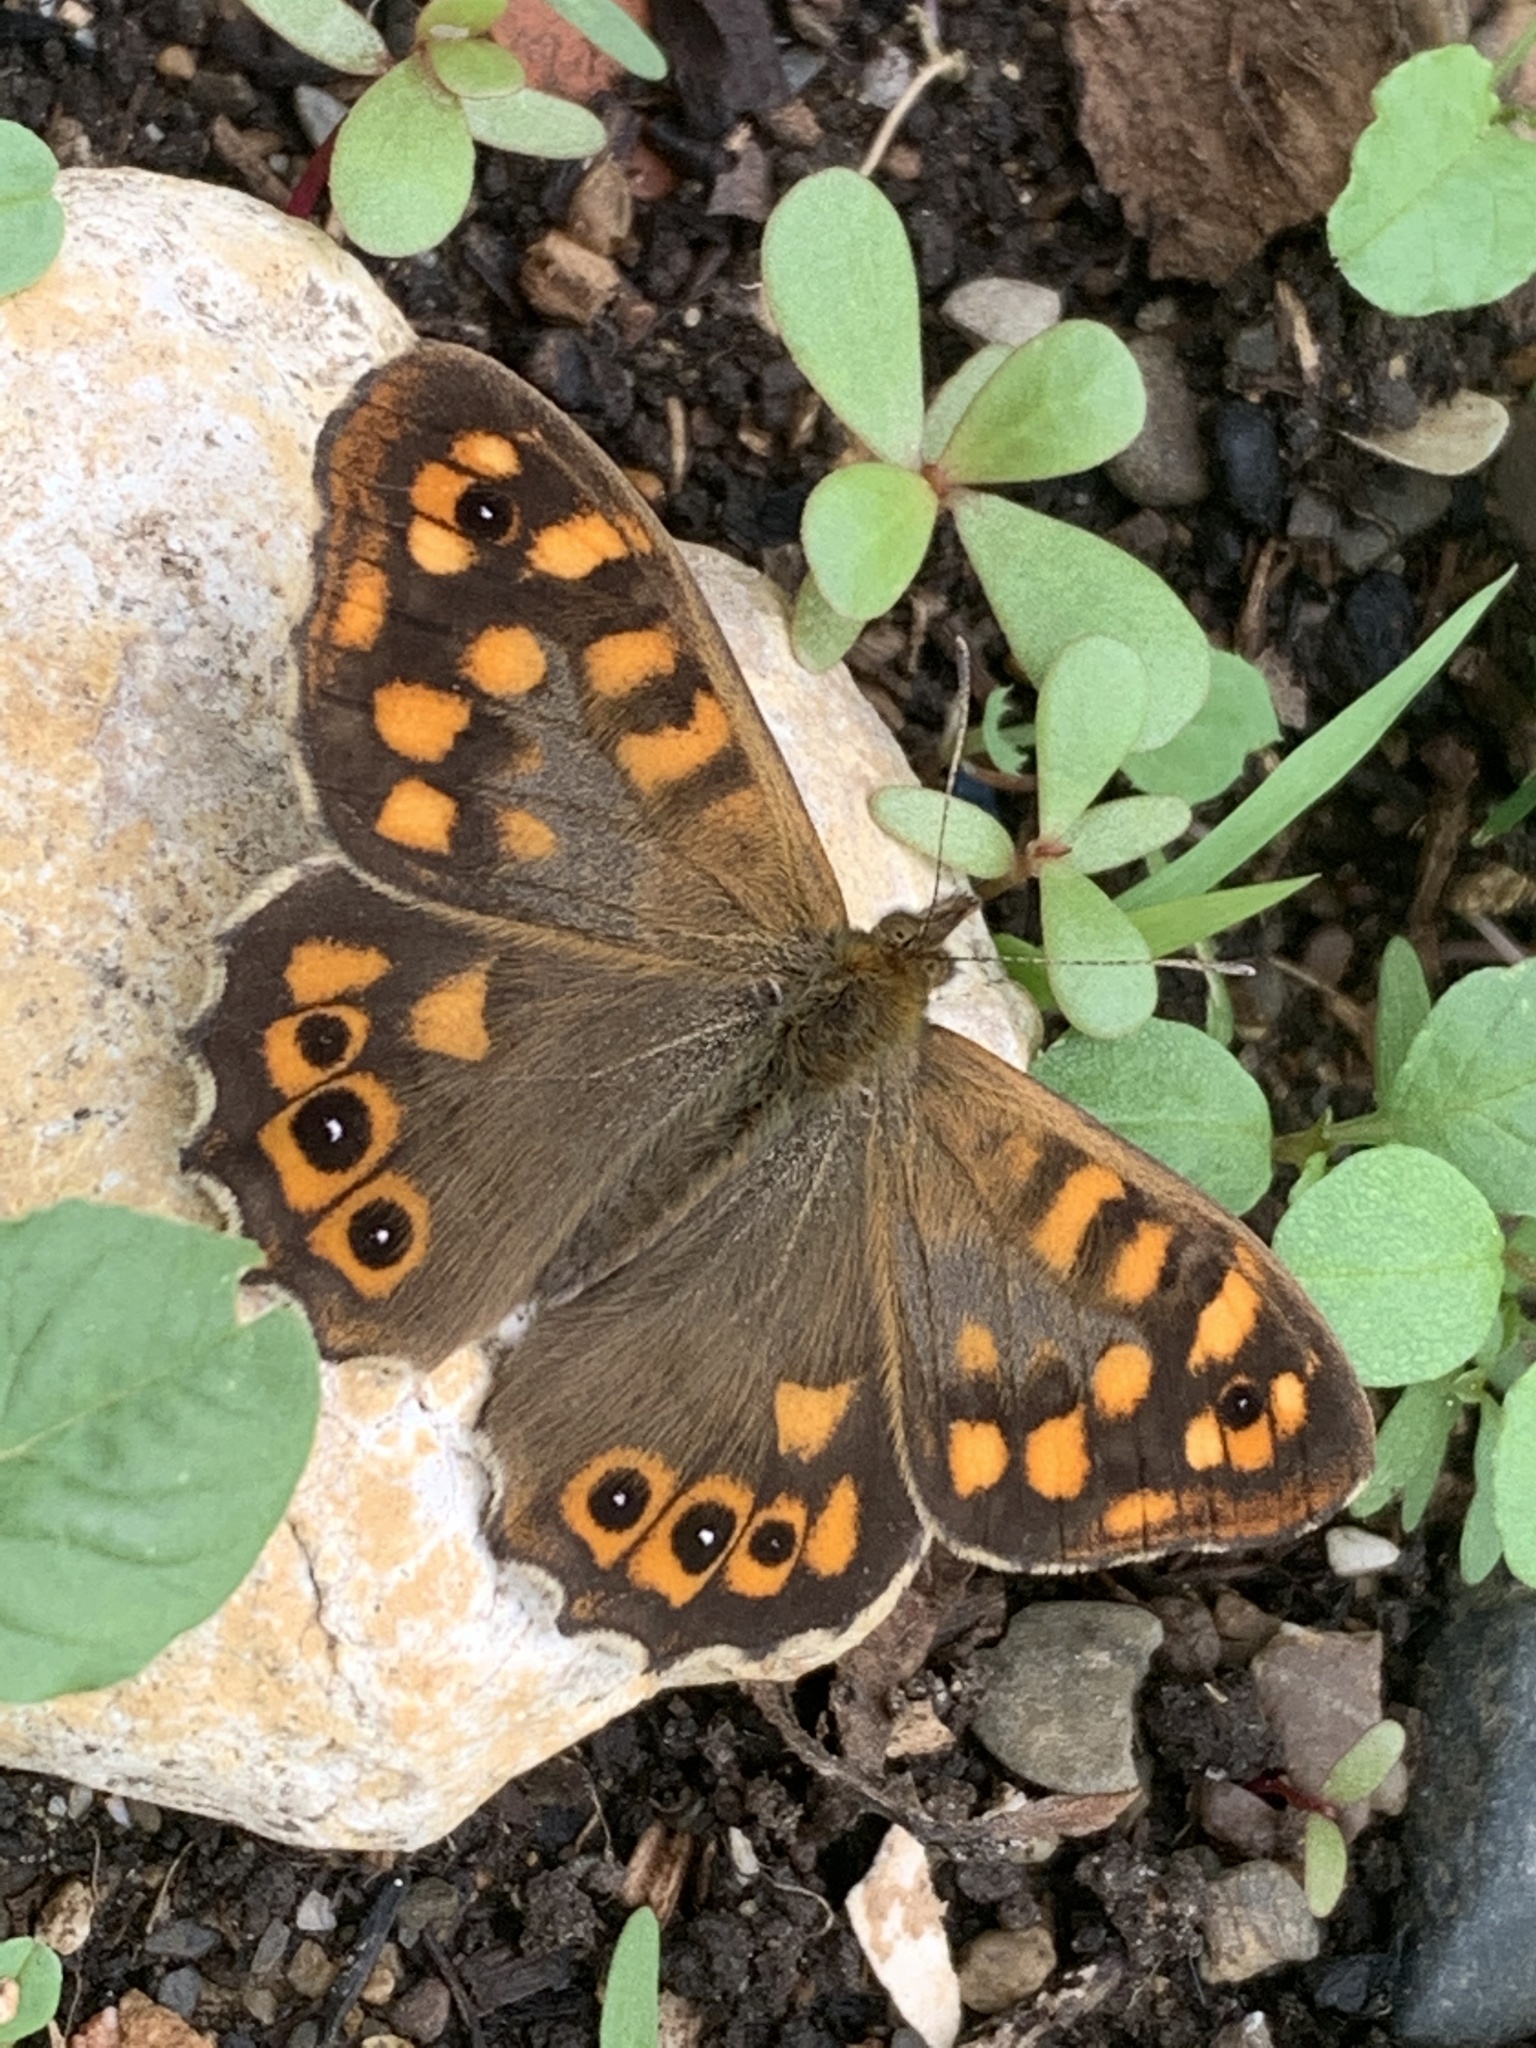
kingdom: Animalia
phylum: Arthropoda
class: Insecta
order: Lepidoptera
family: Nymphalidae
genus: Pararge
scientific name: Pararge aegeria
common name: Speckled wood
